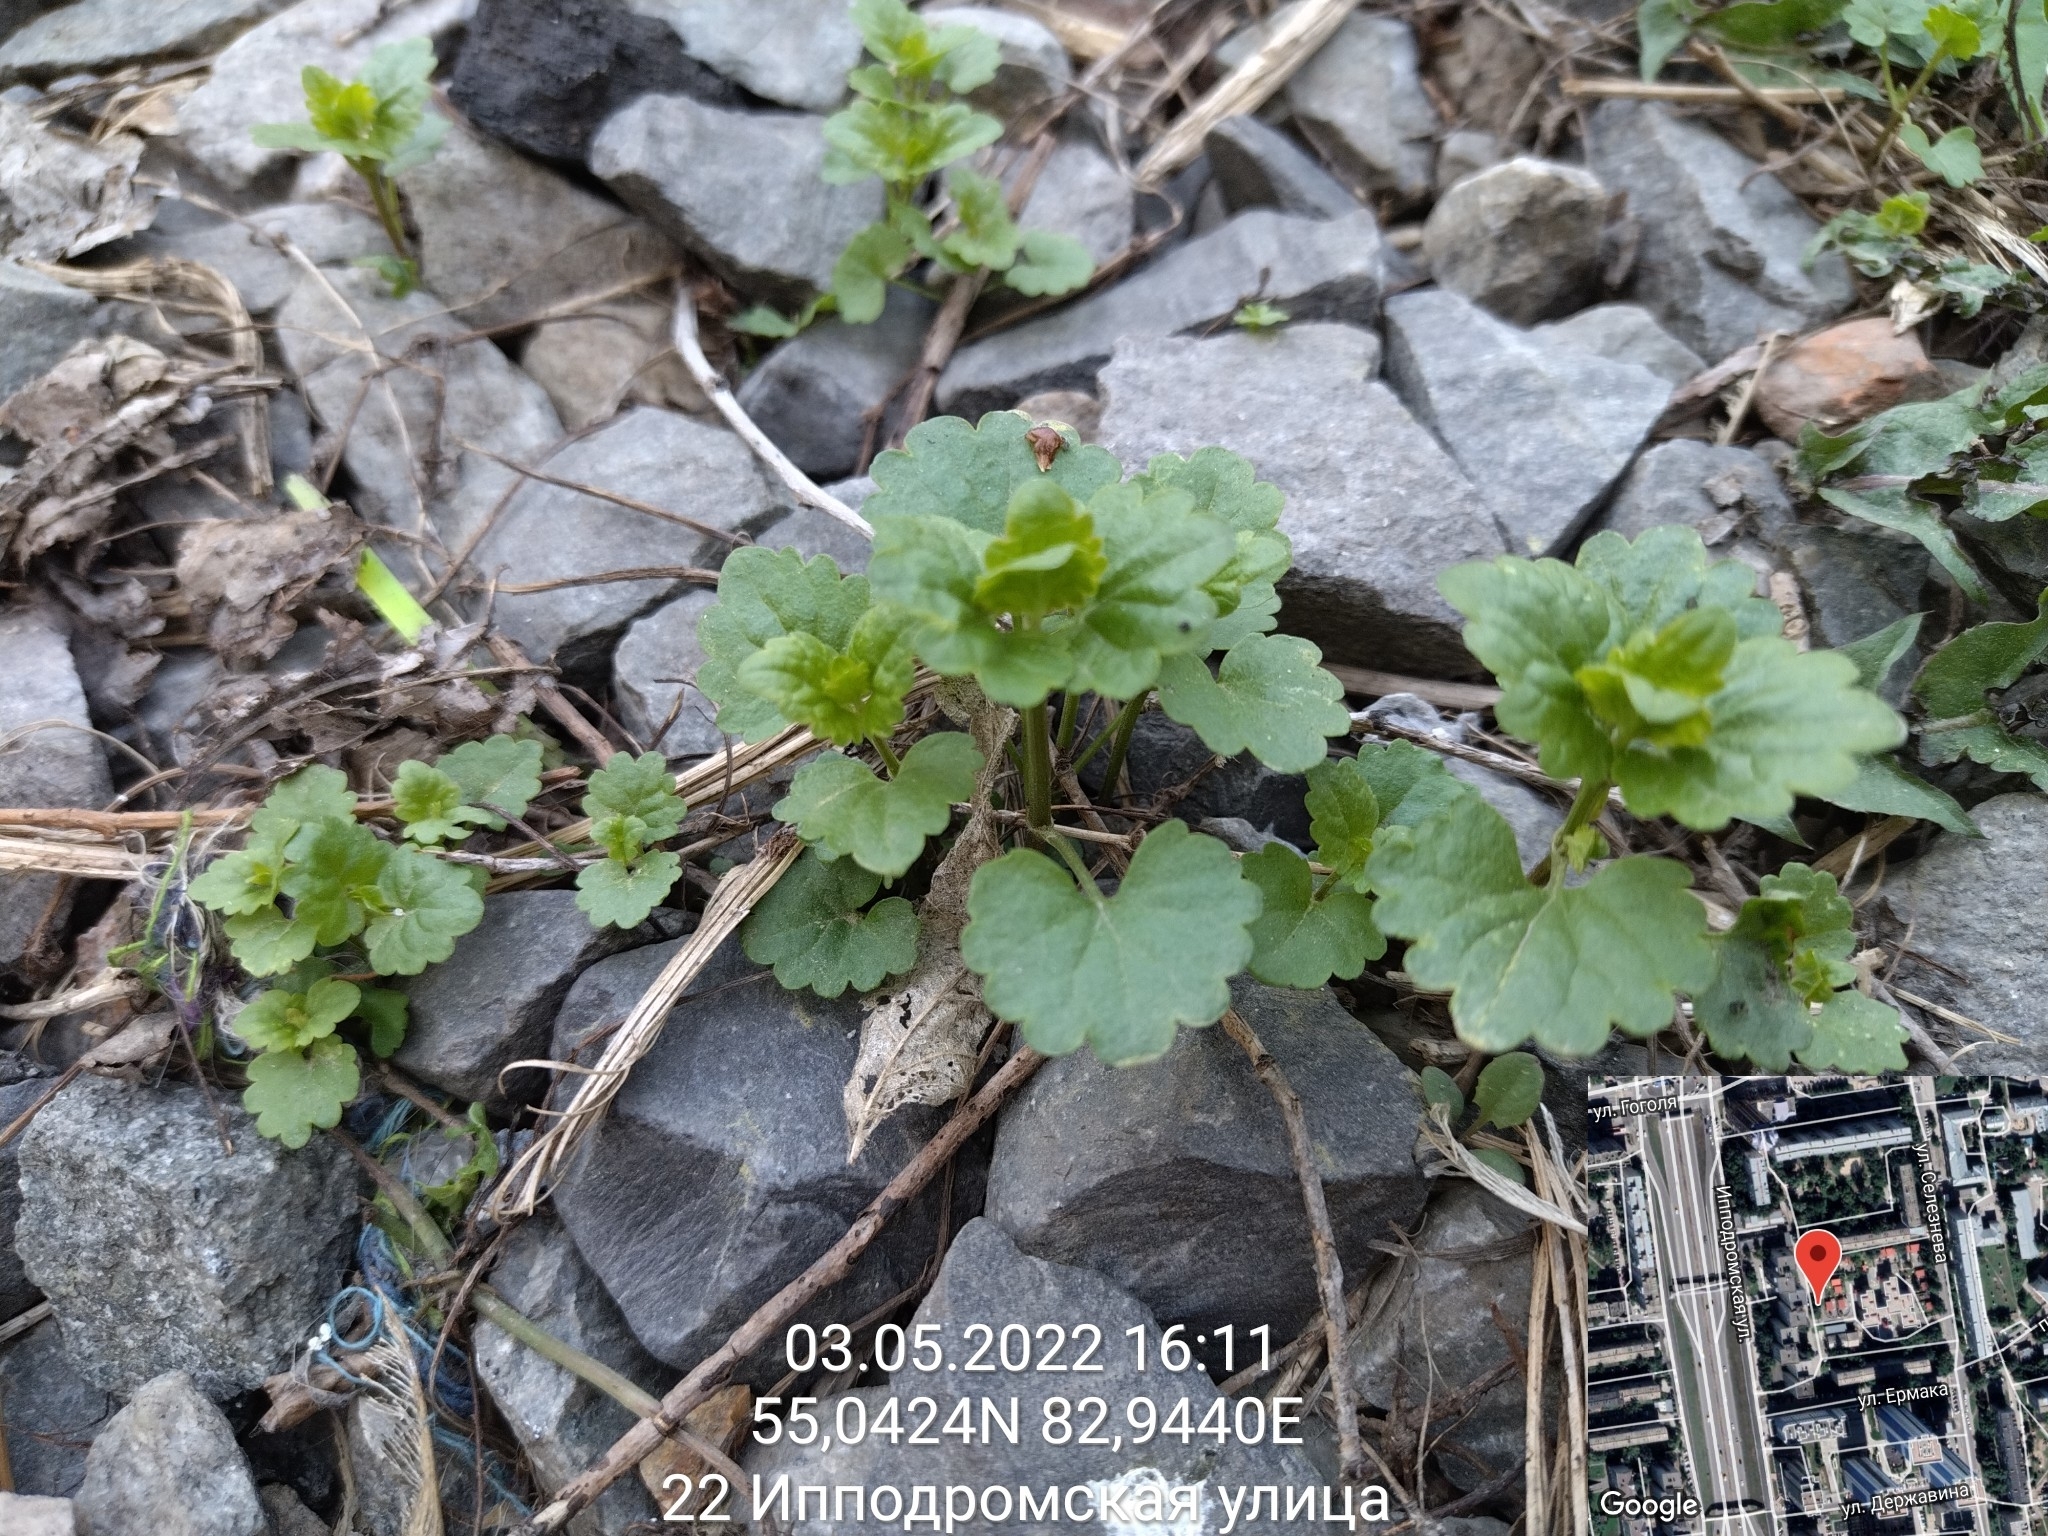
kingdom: Plantae
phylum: Tracheophyta
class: Magnoliopsida
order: Lamiales
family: Lamiaceae
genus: Glechoma
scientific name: Glechoma hederacea
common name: Ground ivy
